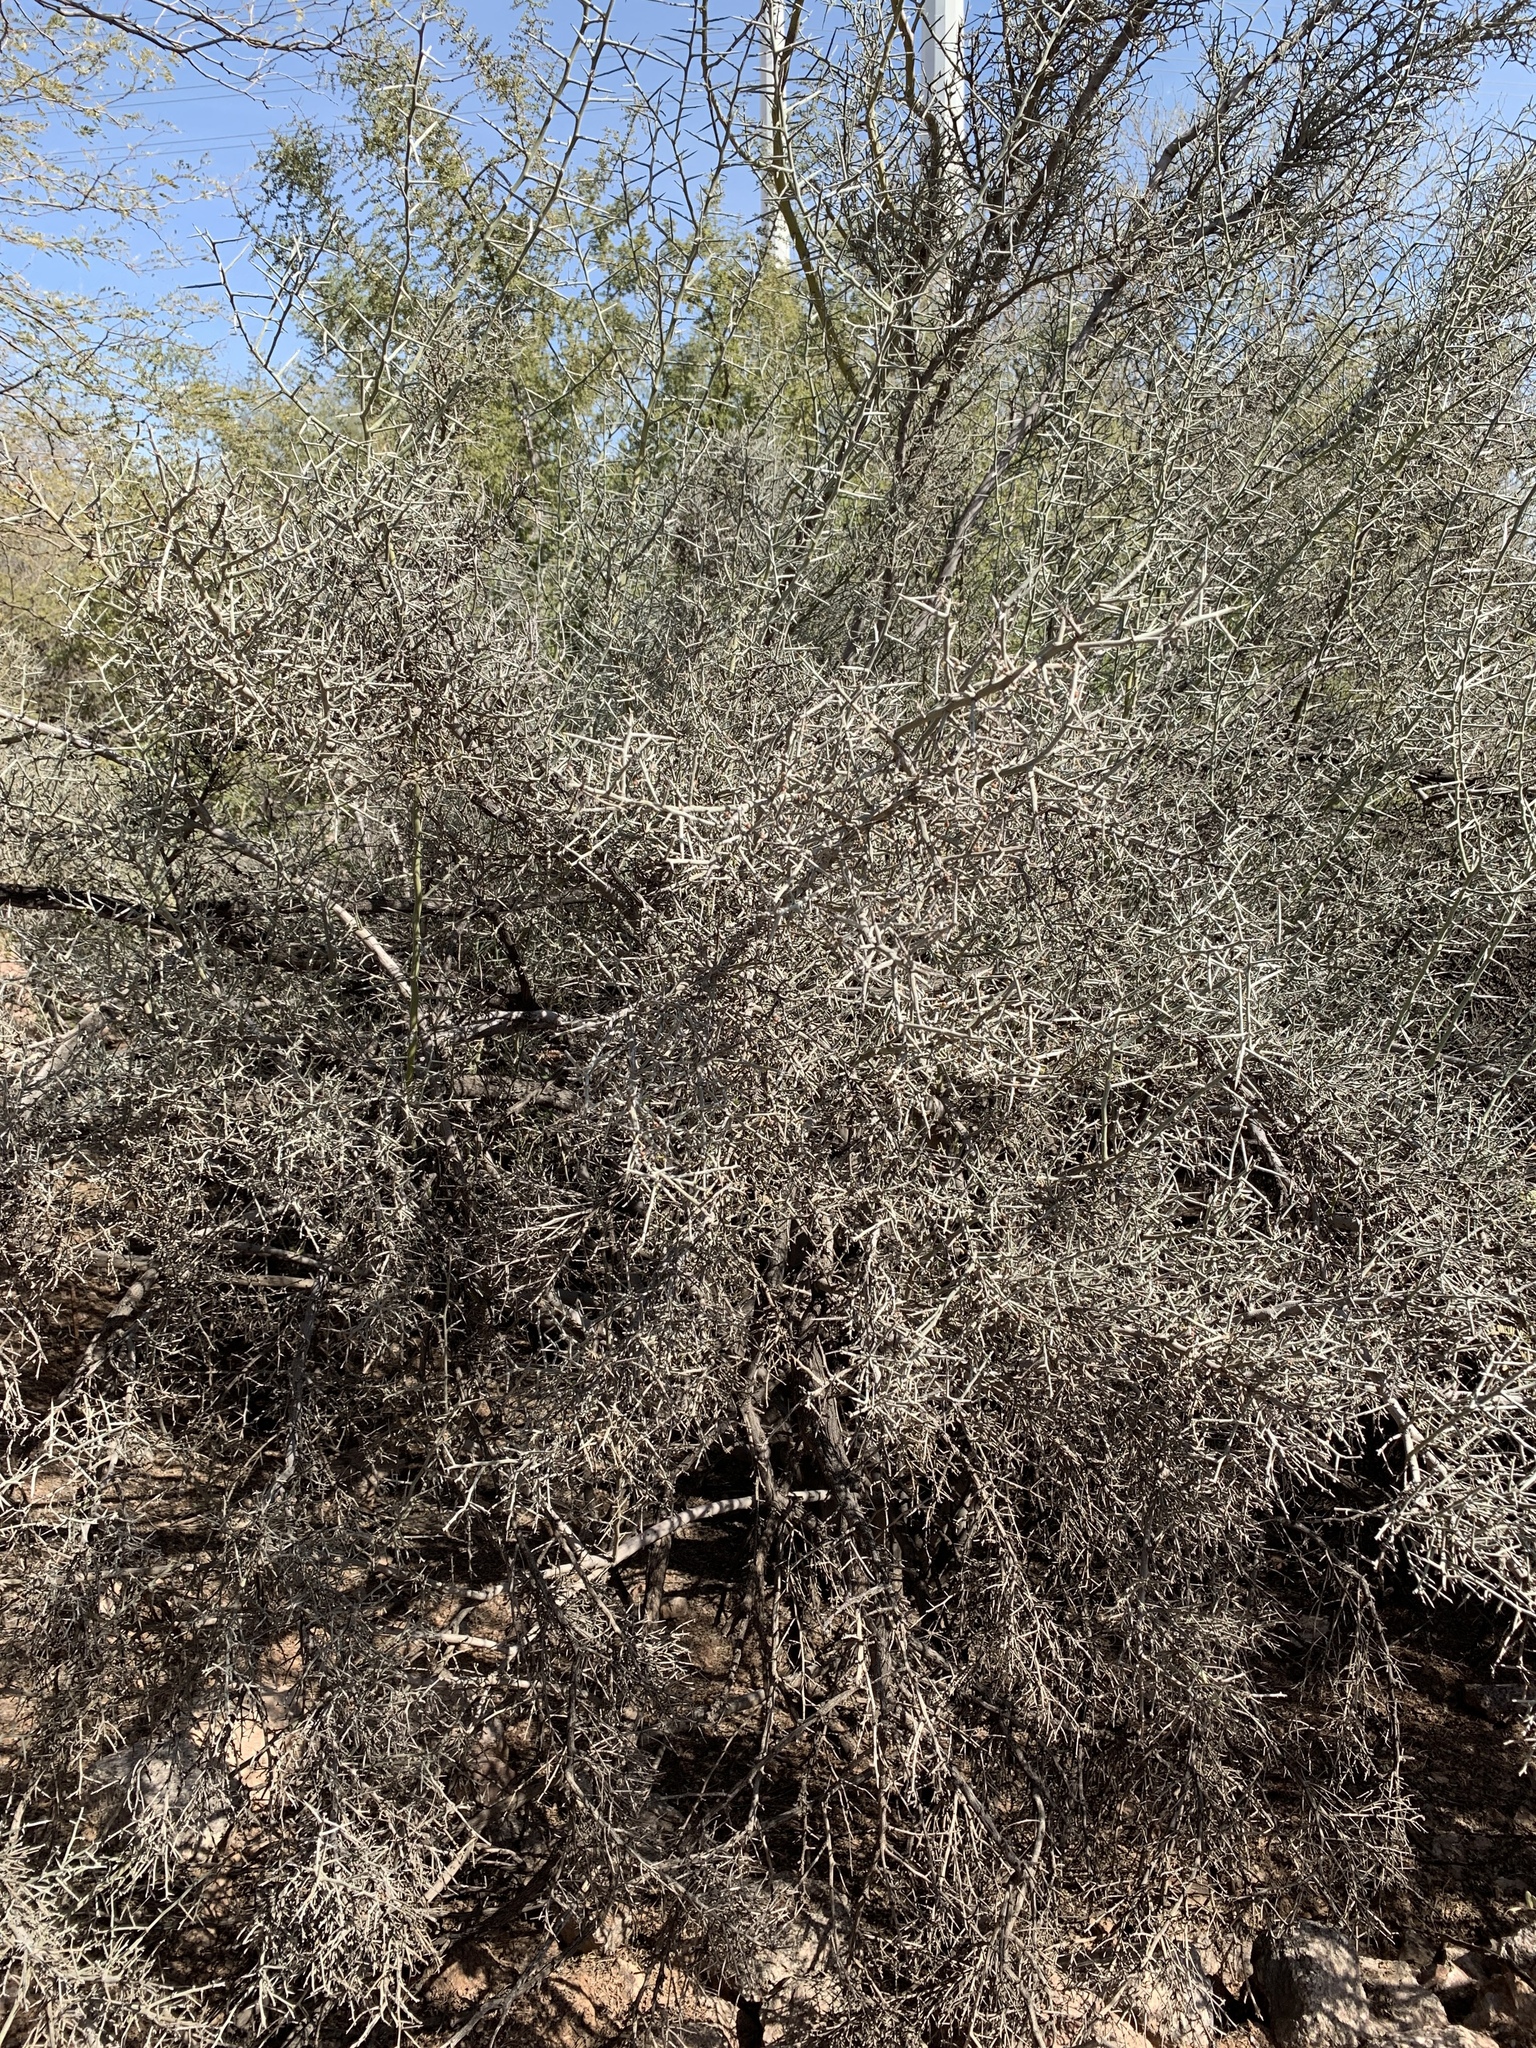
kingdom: Plantae
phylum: Tracheophyta
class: Magnoliopsida
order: Rosales
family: Rhamnaceae
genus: Sarcomphalus
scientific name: Sarcomphalus obtusifolius
